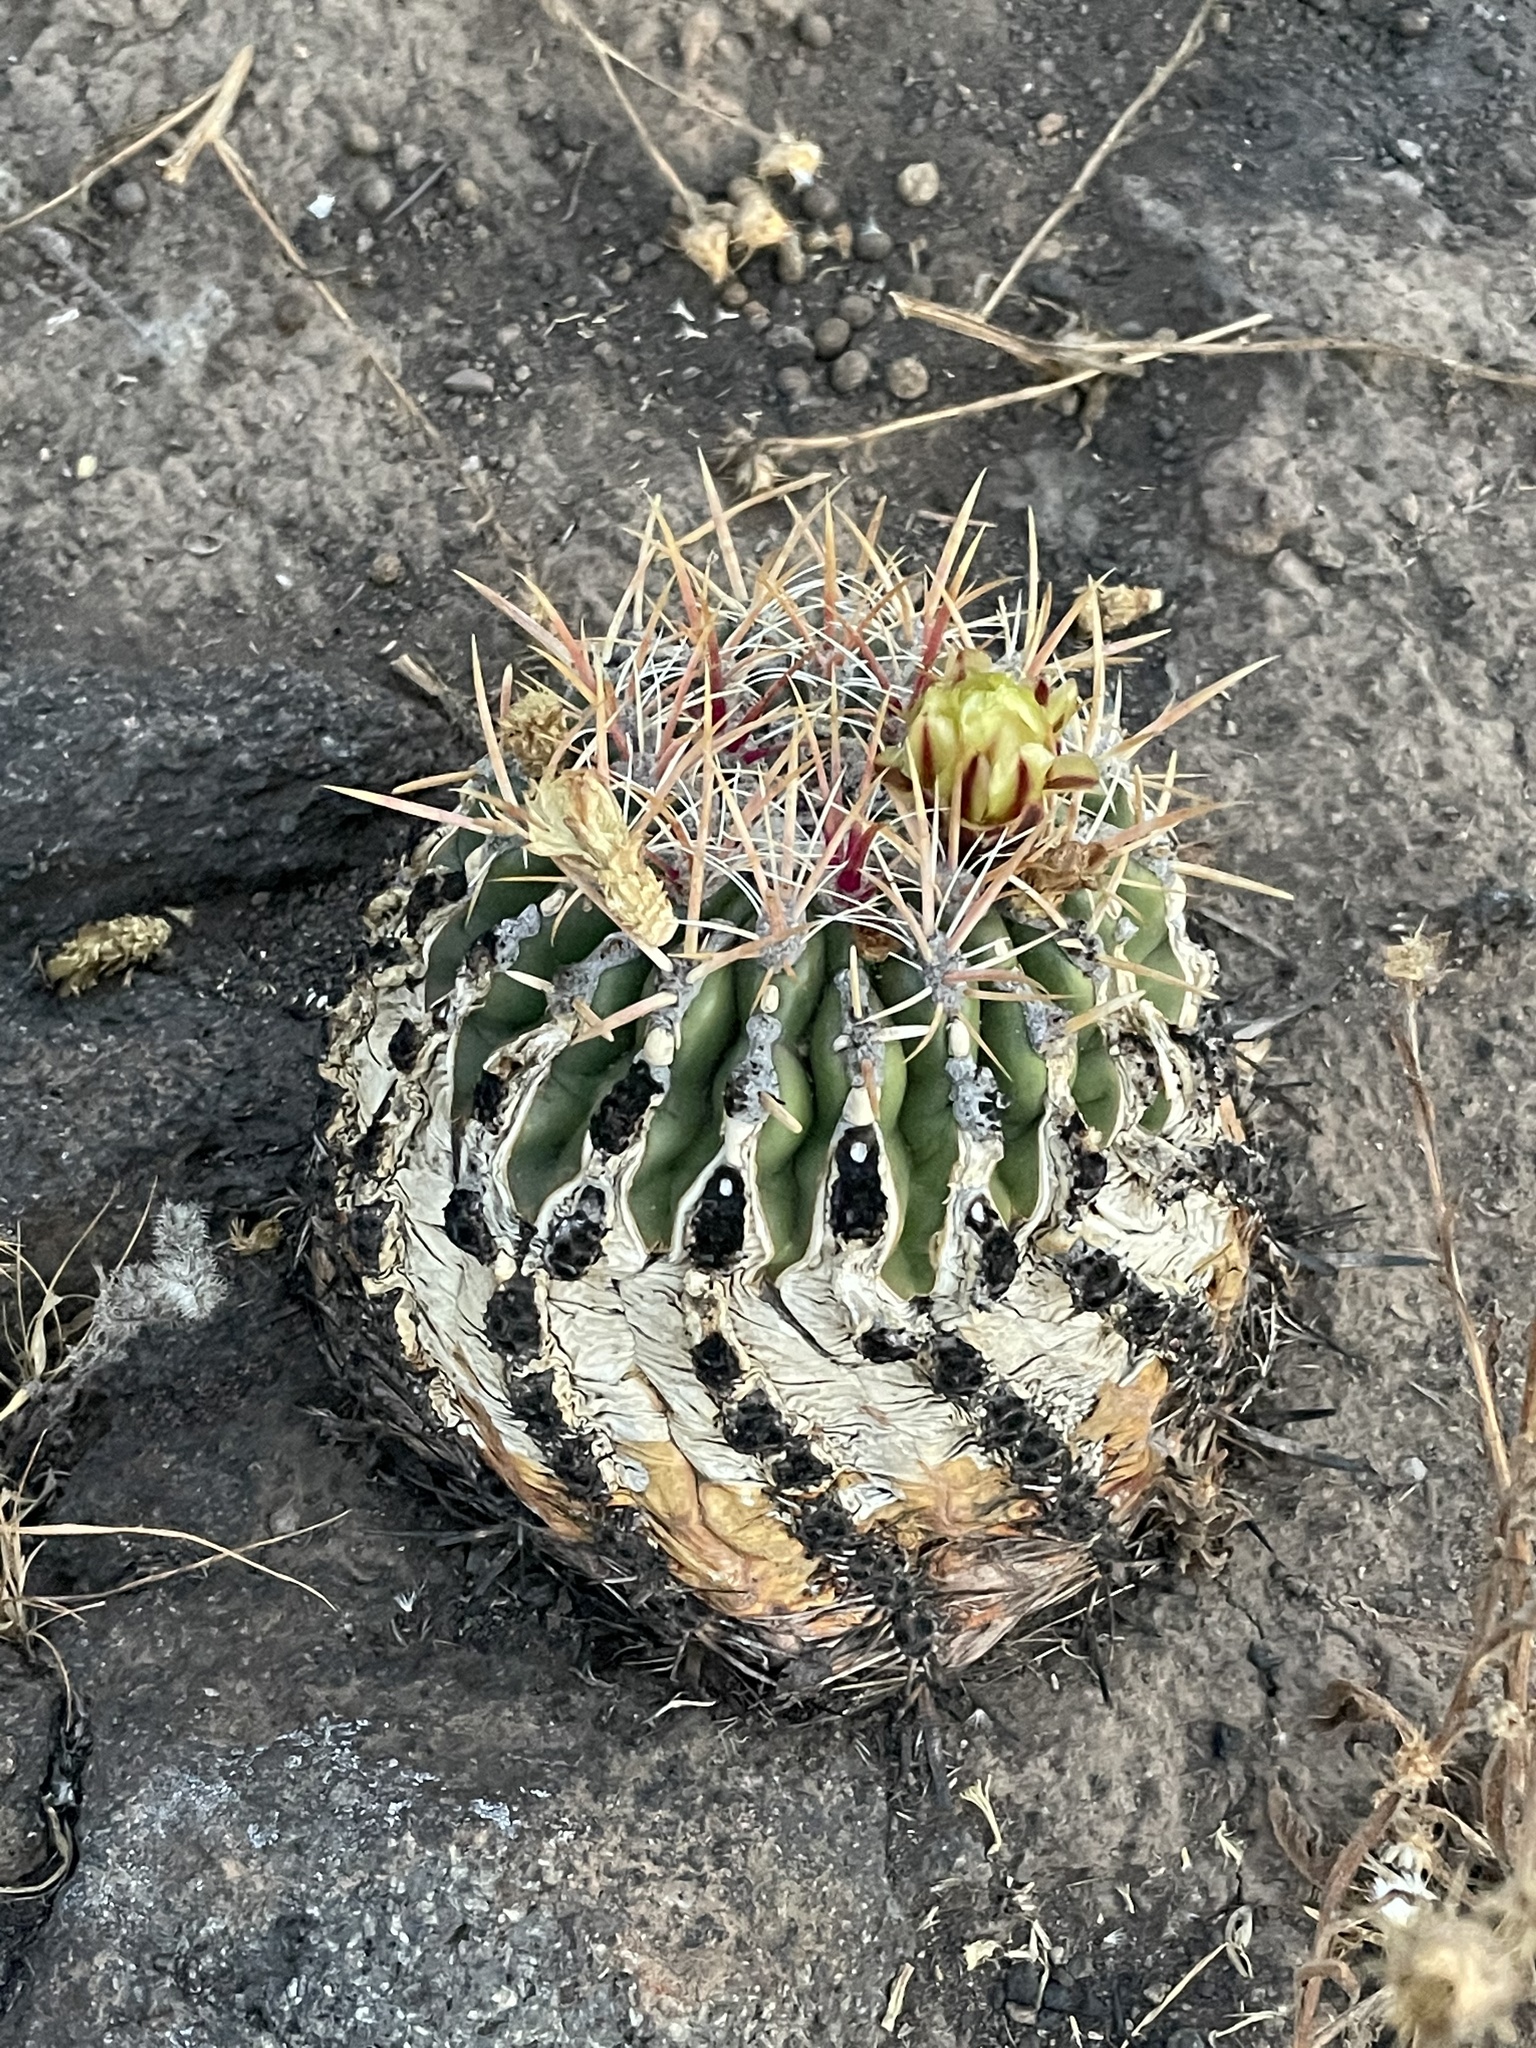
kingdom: Plantae
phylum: Tracheophyta
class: Magnoliopsida
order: Caryophyllales
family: Cactaceae
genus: Ferocactus
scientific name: Ferocactus viridescens
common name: San diego barrel cactus
